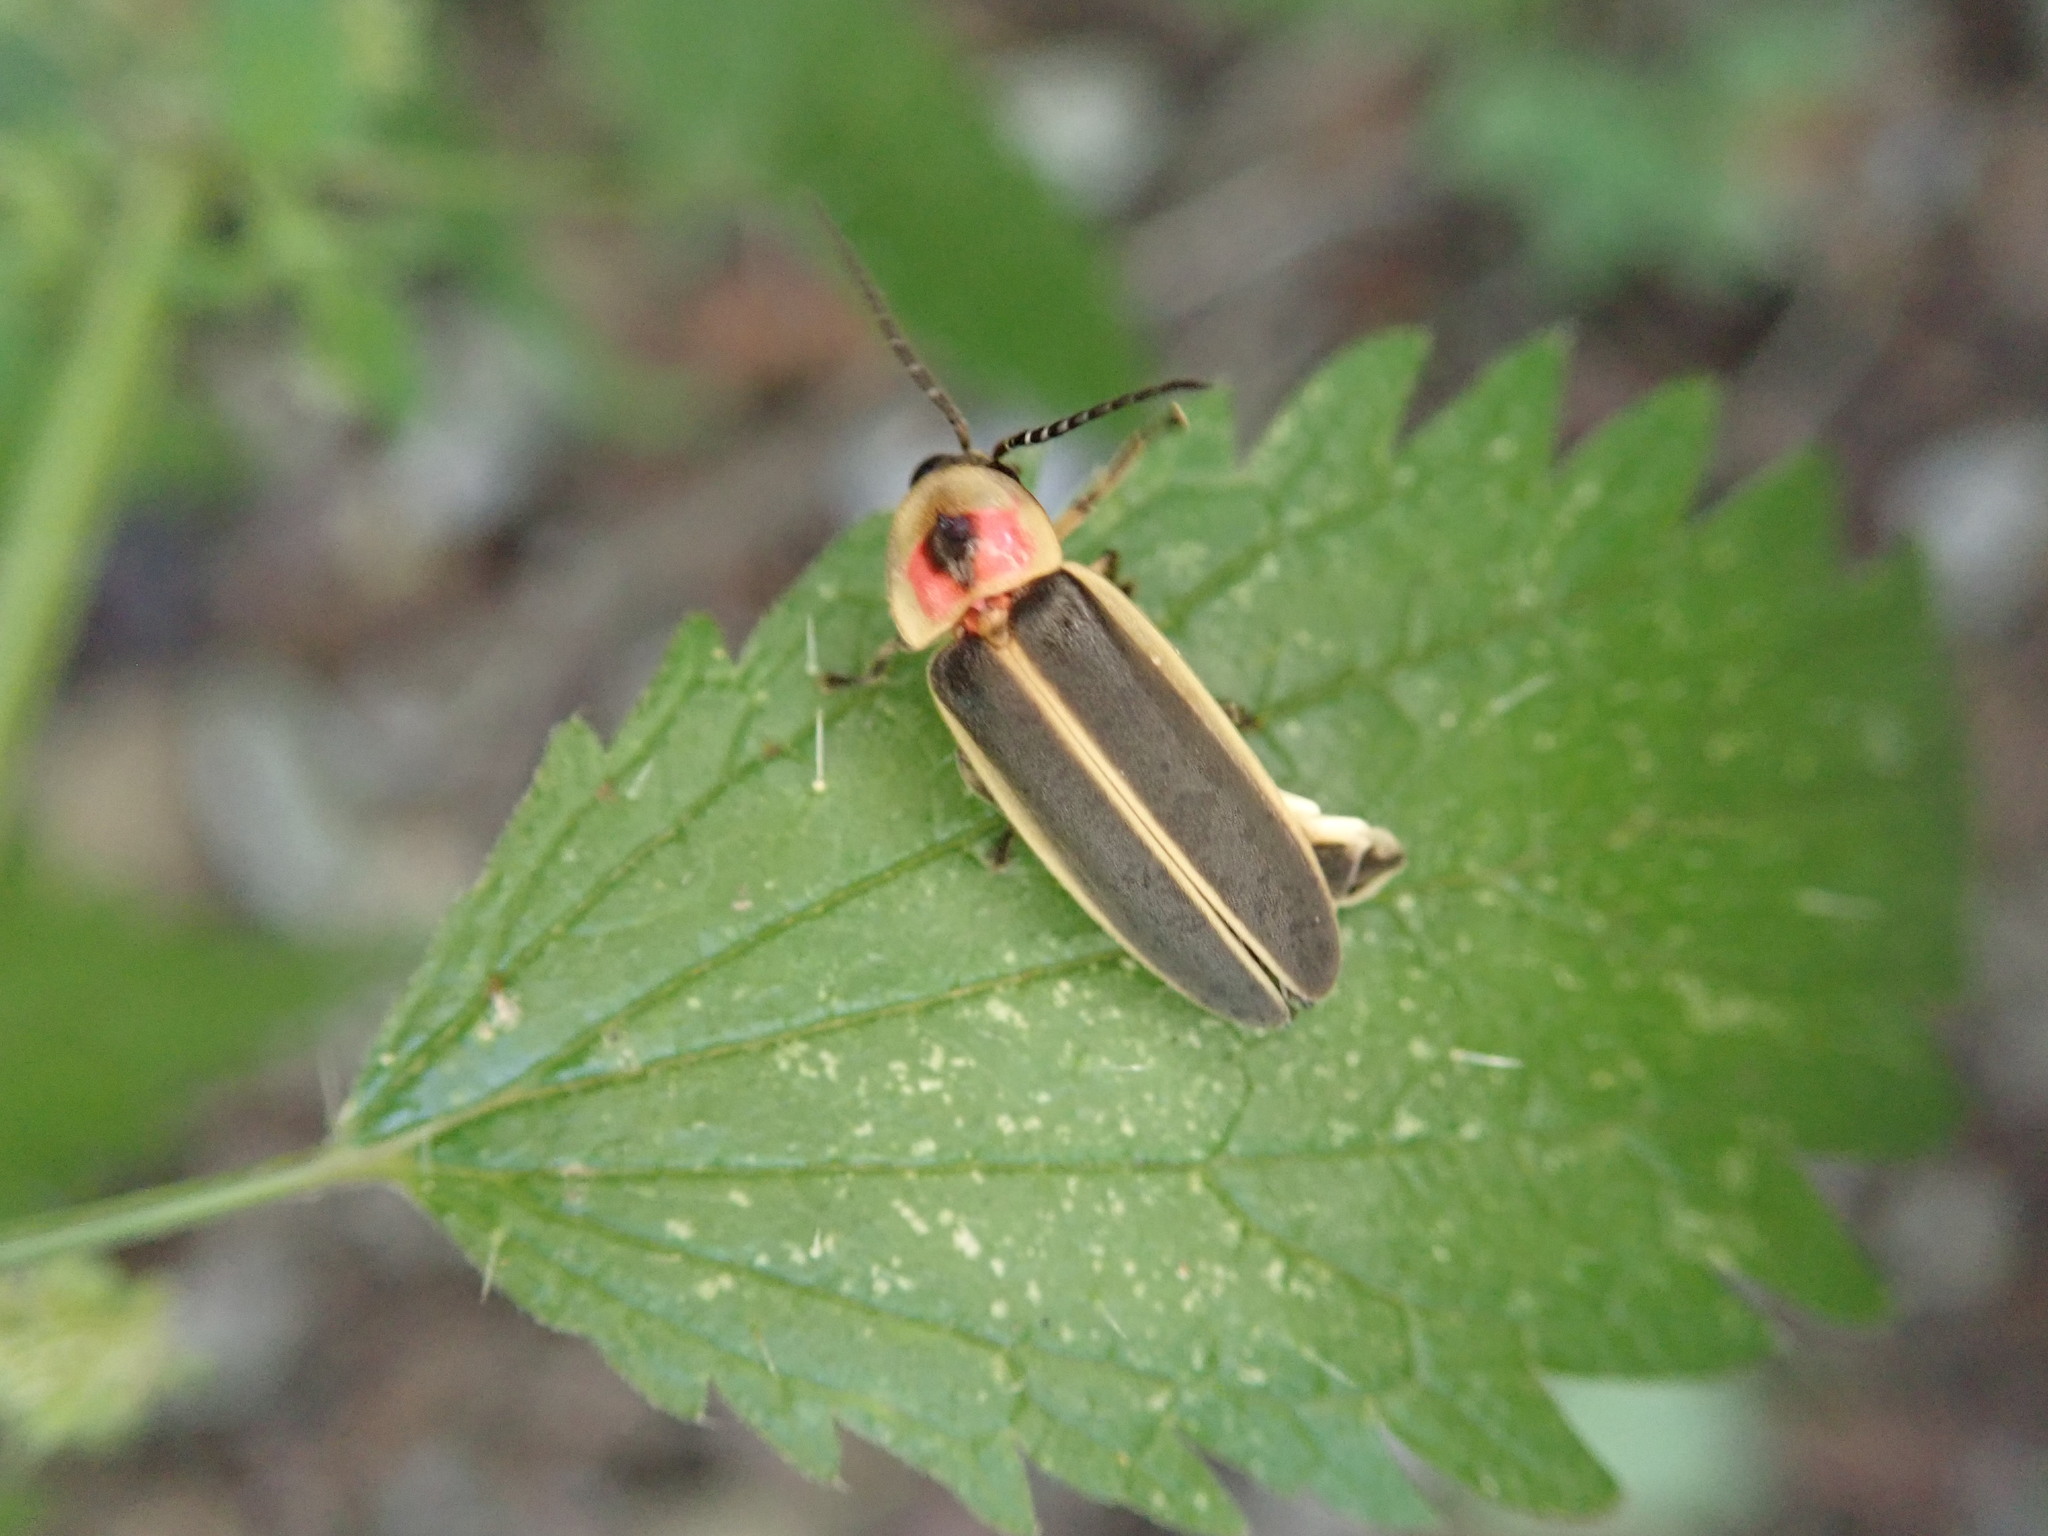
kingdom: Animalia
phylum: Arthropoda
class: Insecta
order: Coleoptera
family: Lampyridae
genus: Photinus
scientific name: Photinus pyralis
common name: Big dipper firefly
